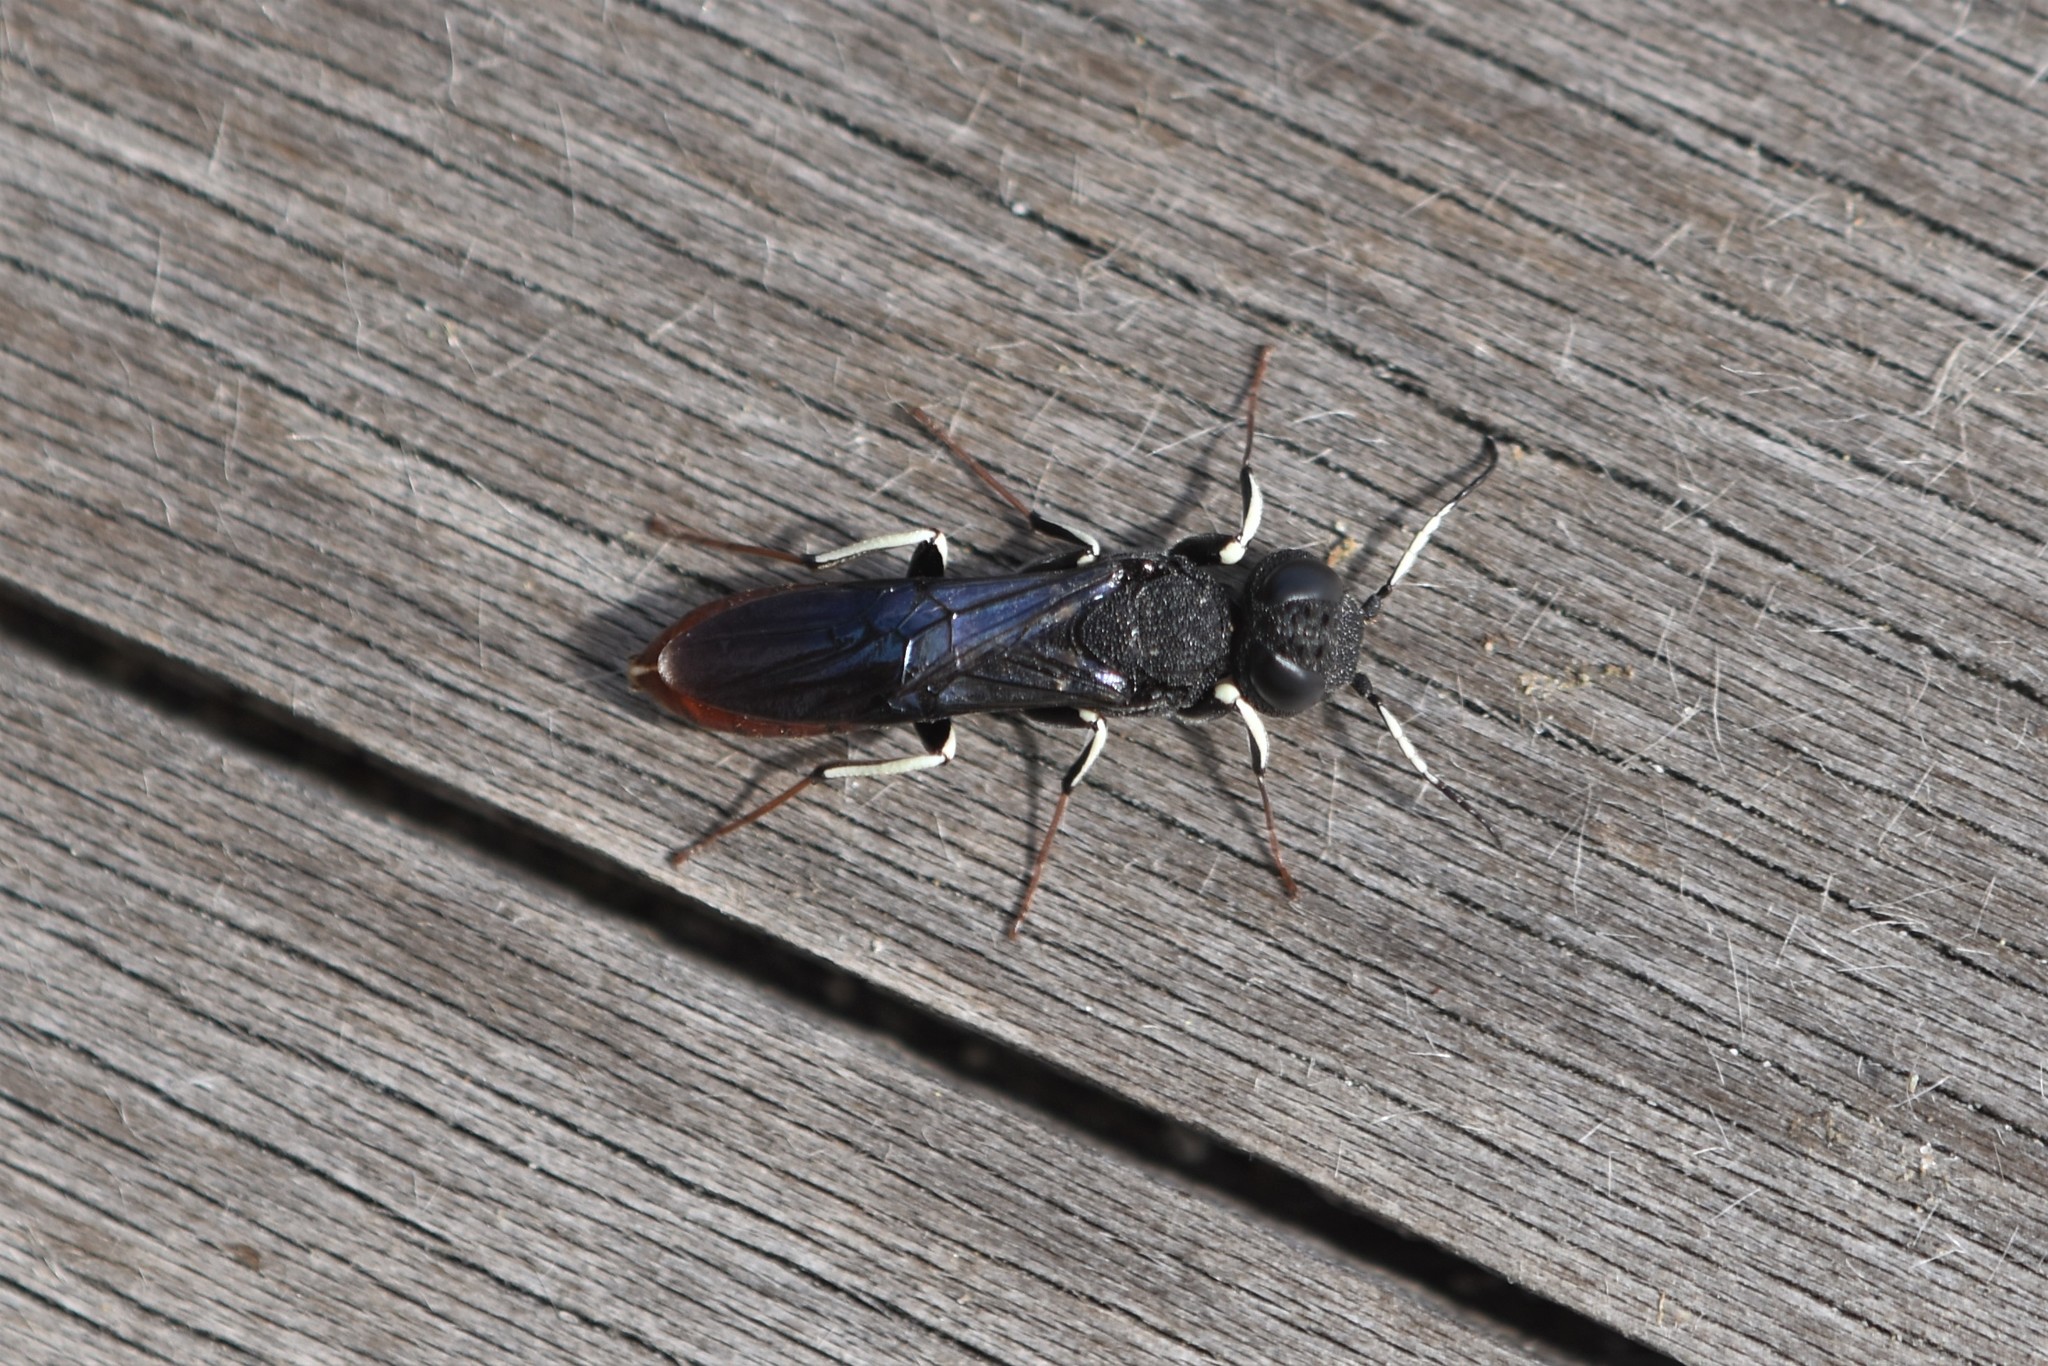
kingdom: Animalia
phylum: Arthropoda
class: Insecta
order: Hymenoptera
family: Orussusidae
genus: Orussus
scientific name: Orussus occidentalis
